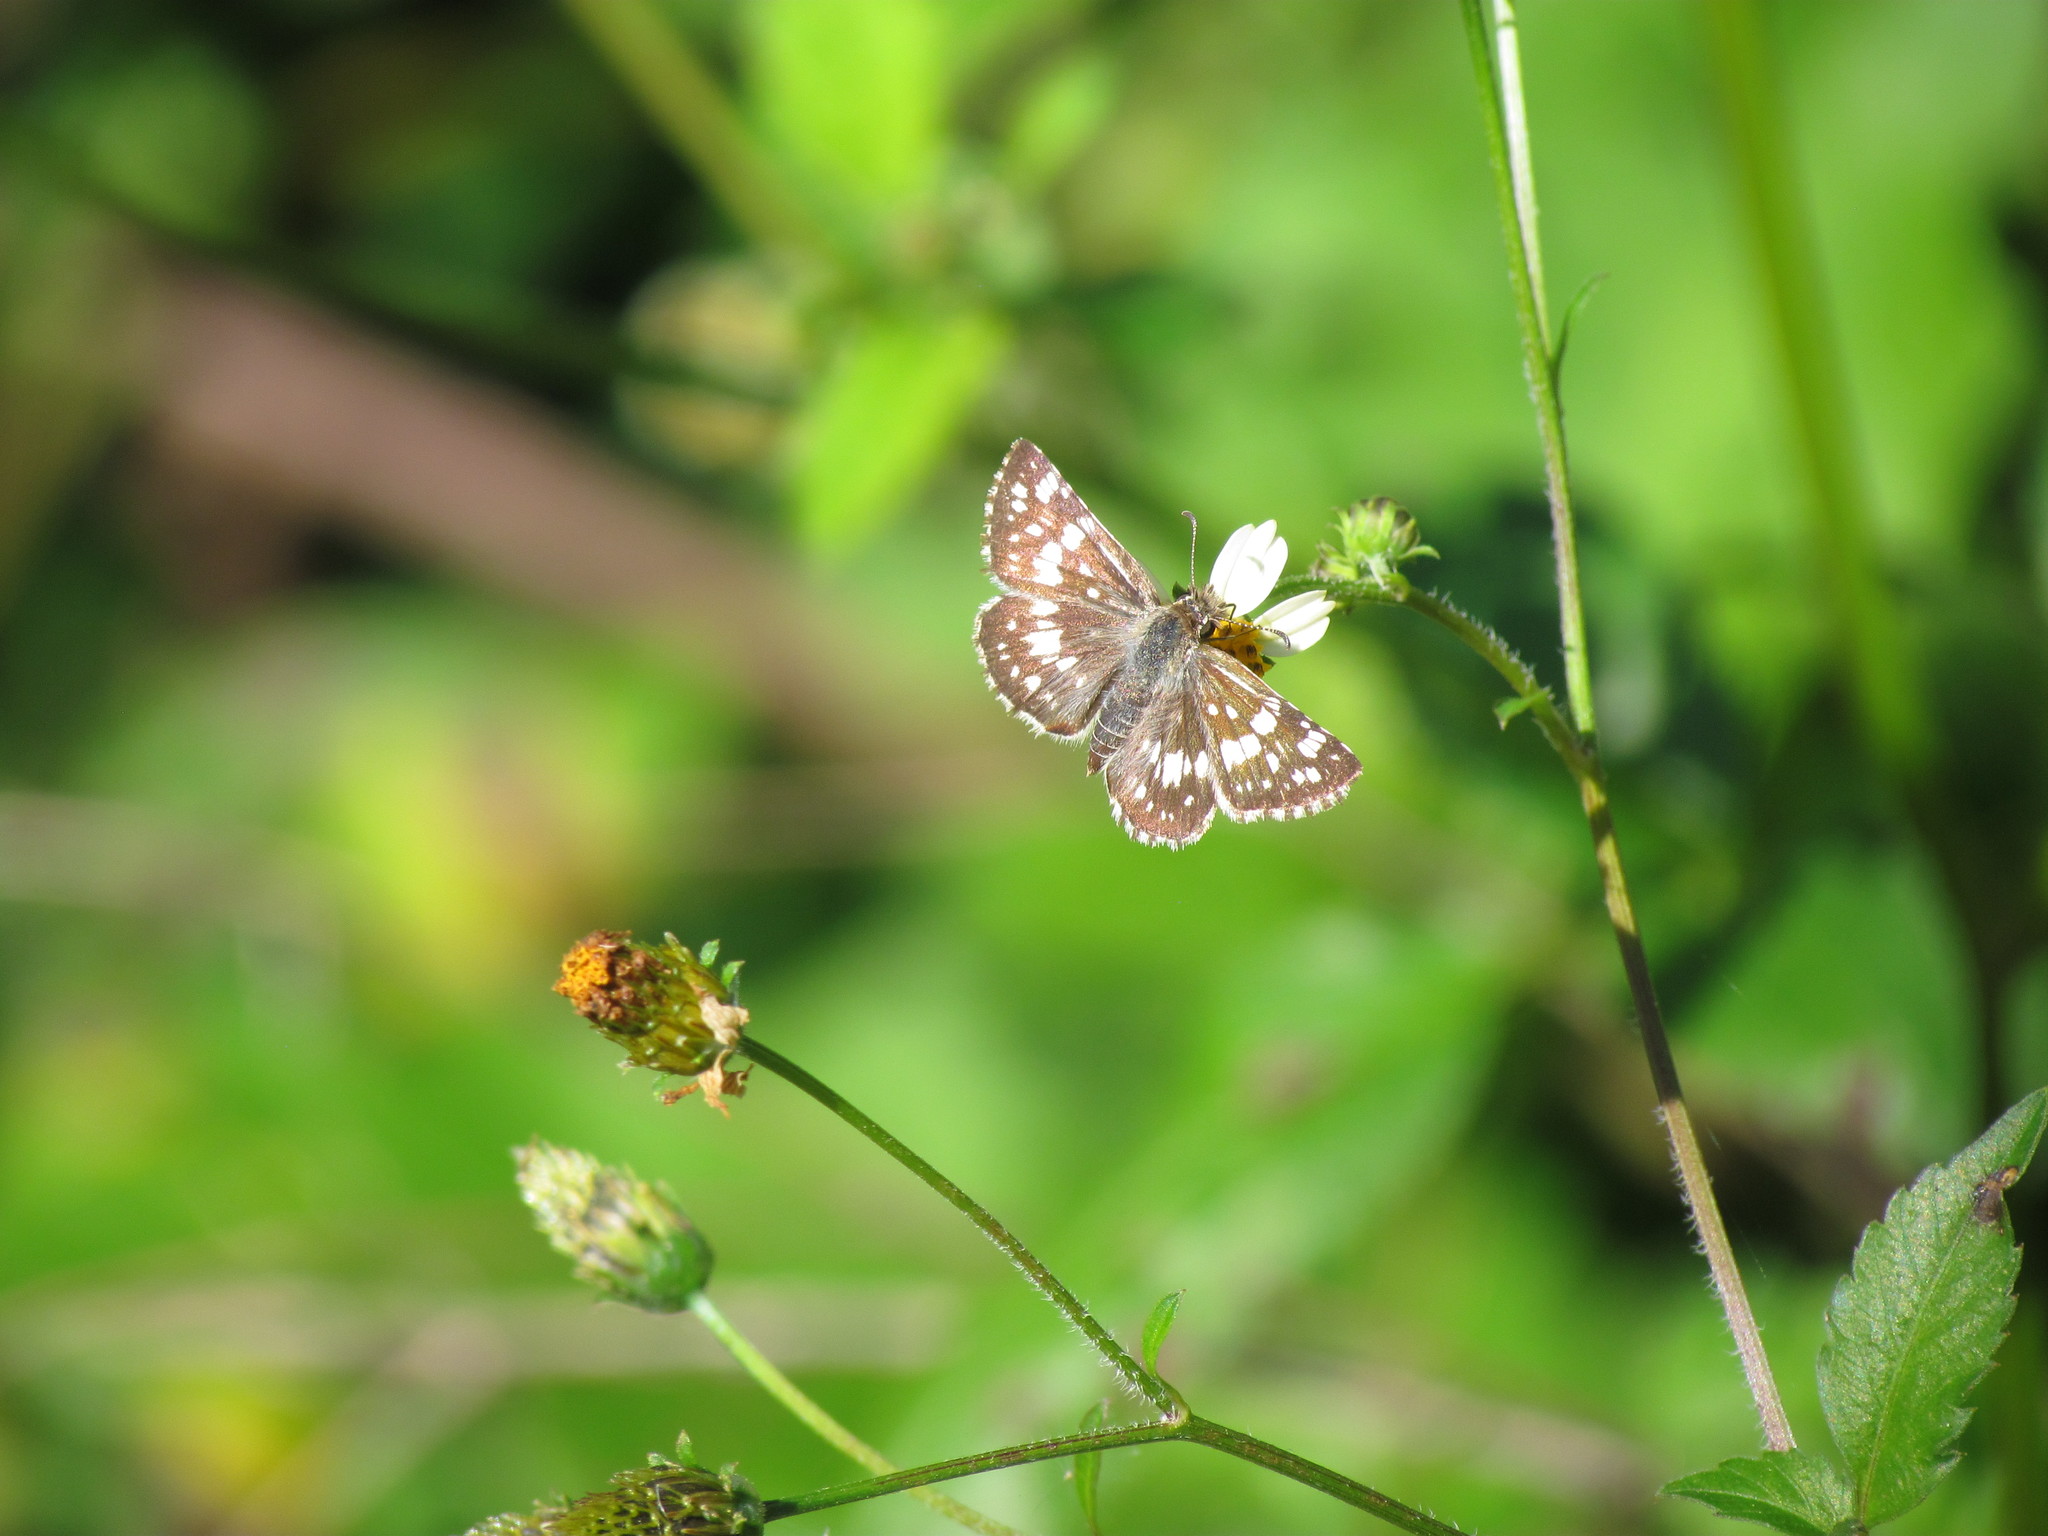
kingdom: Animalia
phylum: Arthropoda
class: Insecta
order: Lepidoptera
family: Hesperiidae
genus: Burnsius
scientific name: Burnsius orcynoides
